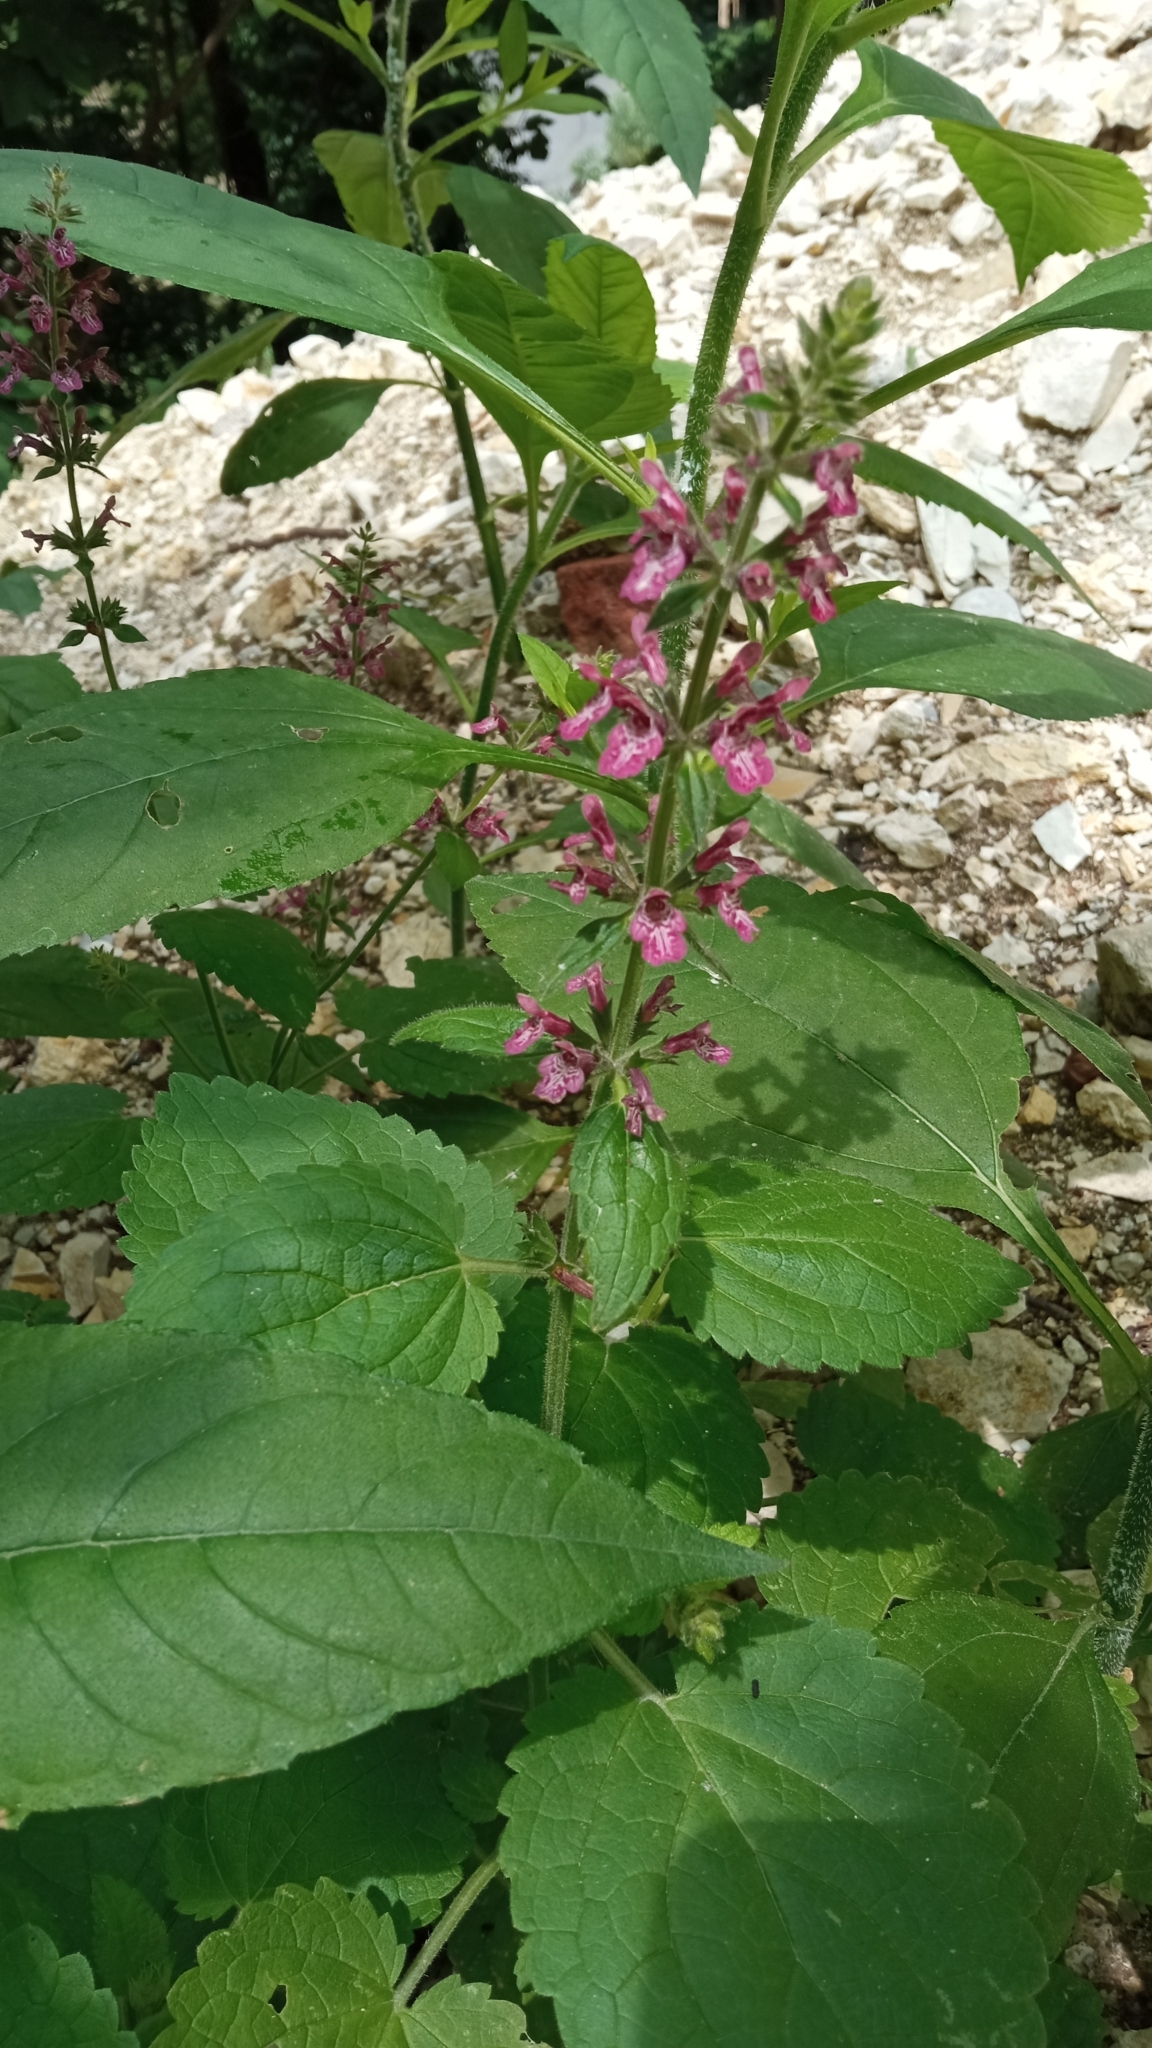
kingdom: Plantae
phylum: Tracheophyta
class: Magnoliopsida
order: Lamiales
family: Lamiaceae
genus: Stachys
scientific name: Stachys sylvatica
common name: Hedge woundwort
